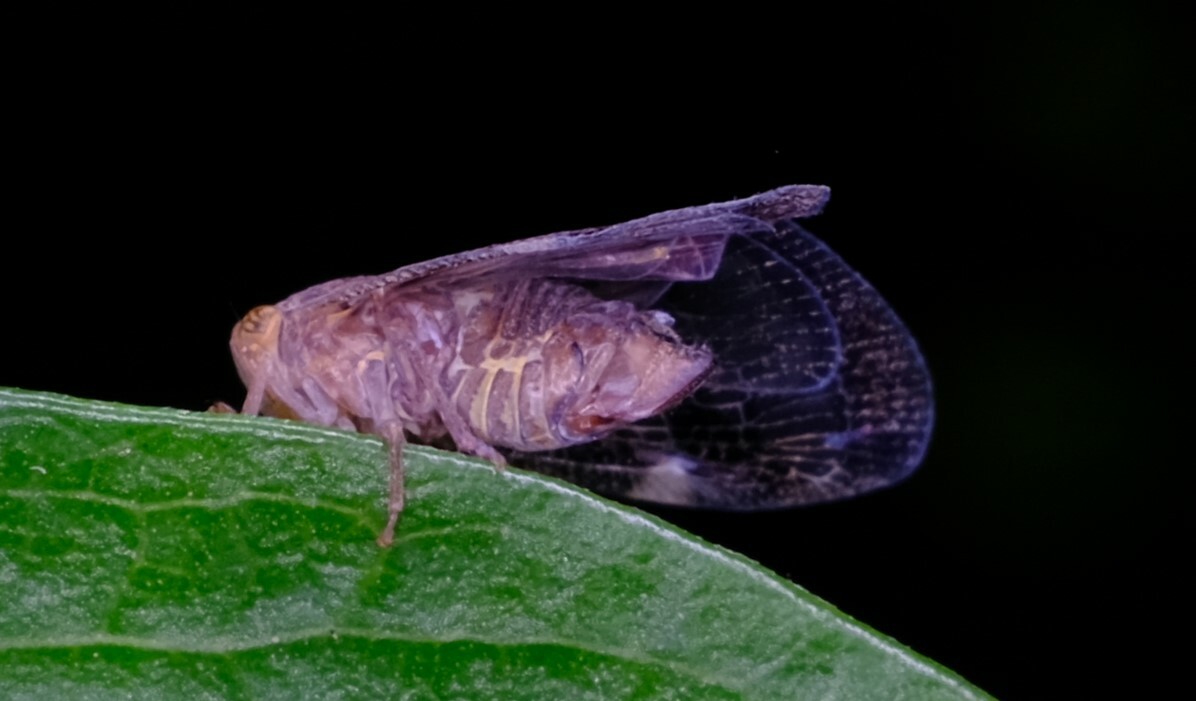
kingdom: Animalia
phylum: Arthropoda
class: Insecta
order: Hemiptera
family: Ricaniidae
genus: Scolypopa
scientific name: Scolypopa australis
